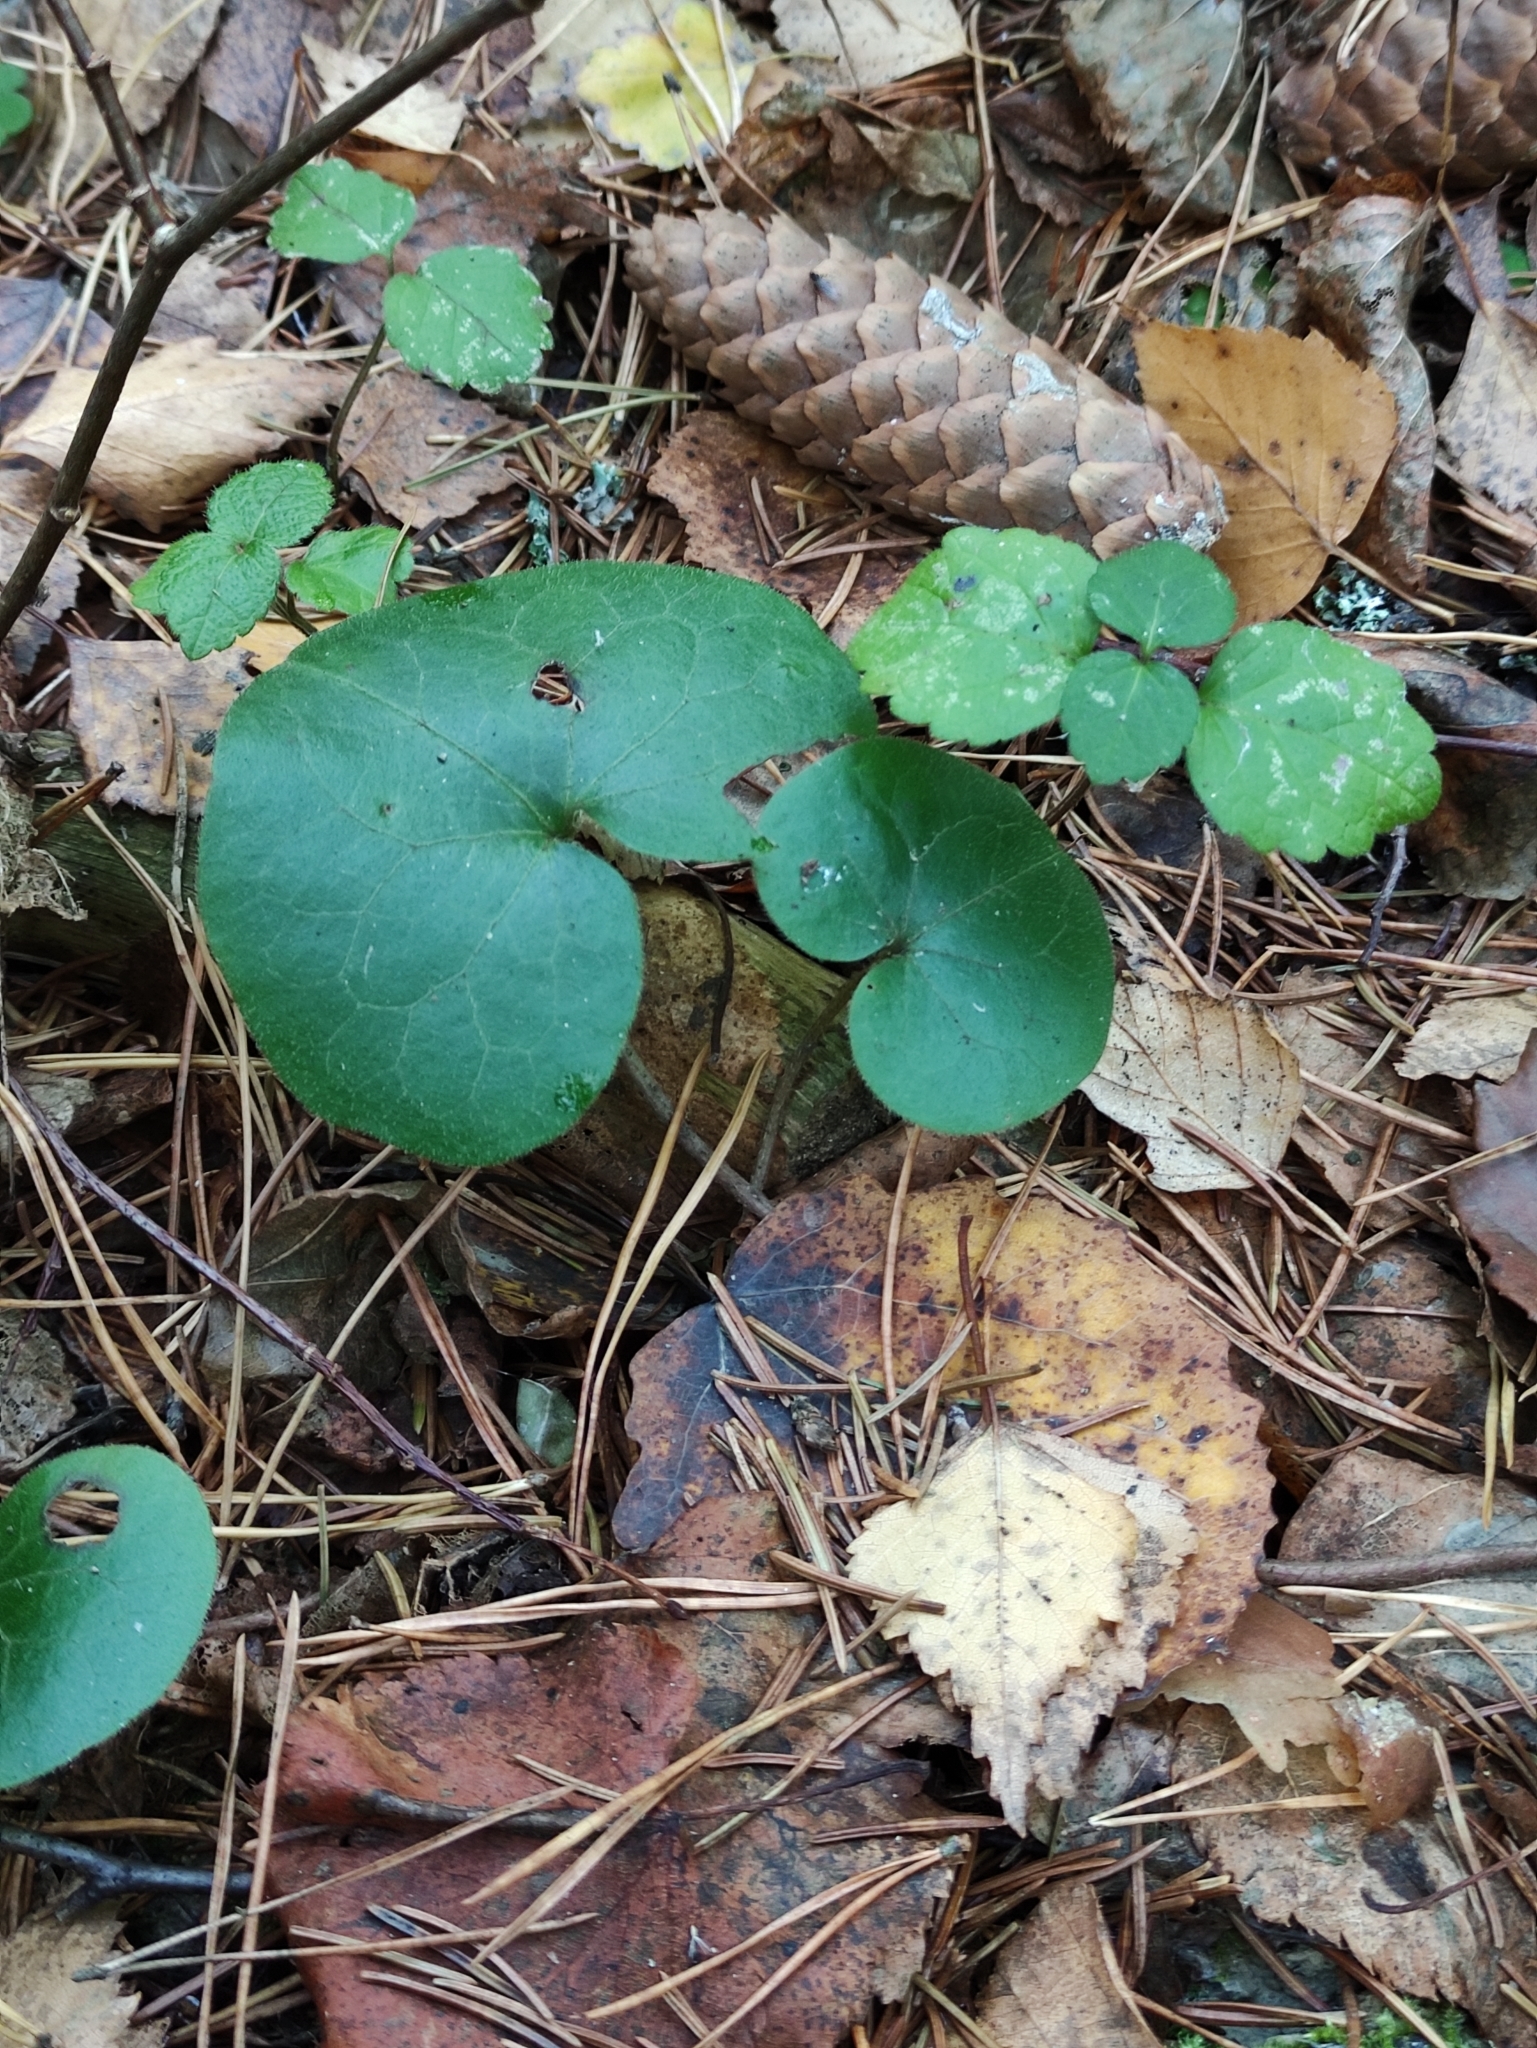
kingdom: Plantae
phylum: Tracheophyta
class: Magnoliopsida
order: Piperales
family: Aristolochiaceae
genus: Asarum
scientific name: Asarum europaeum
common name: Asarabacca
